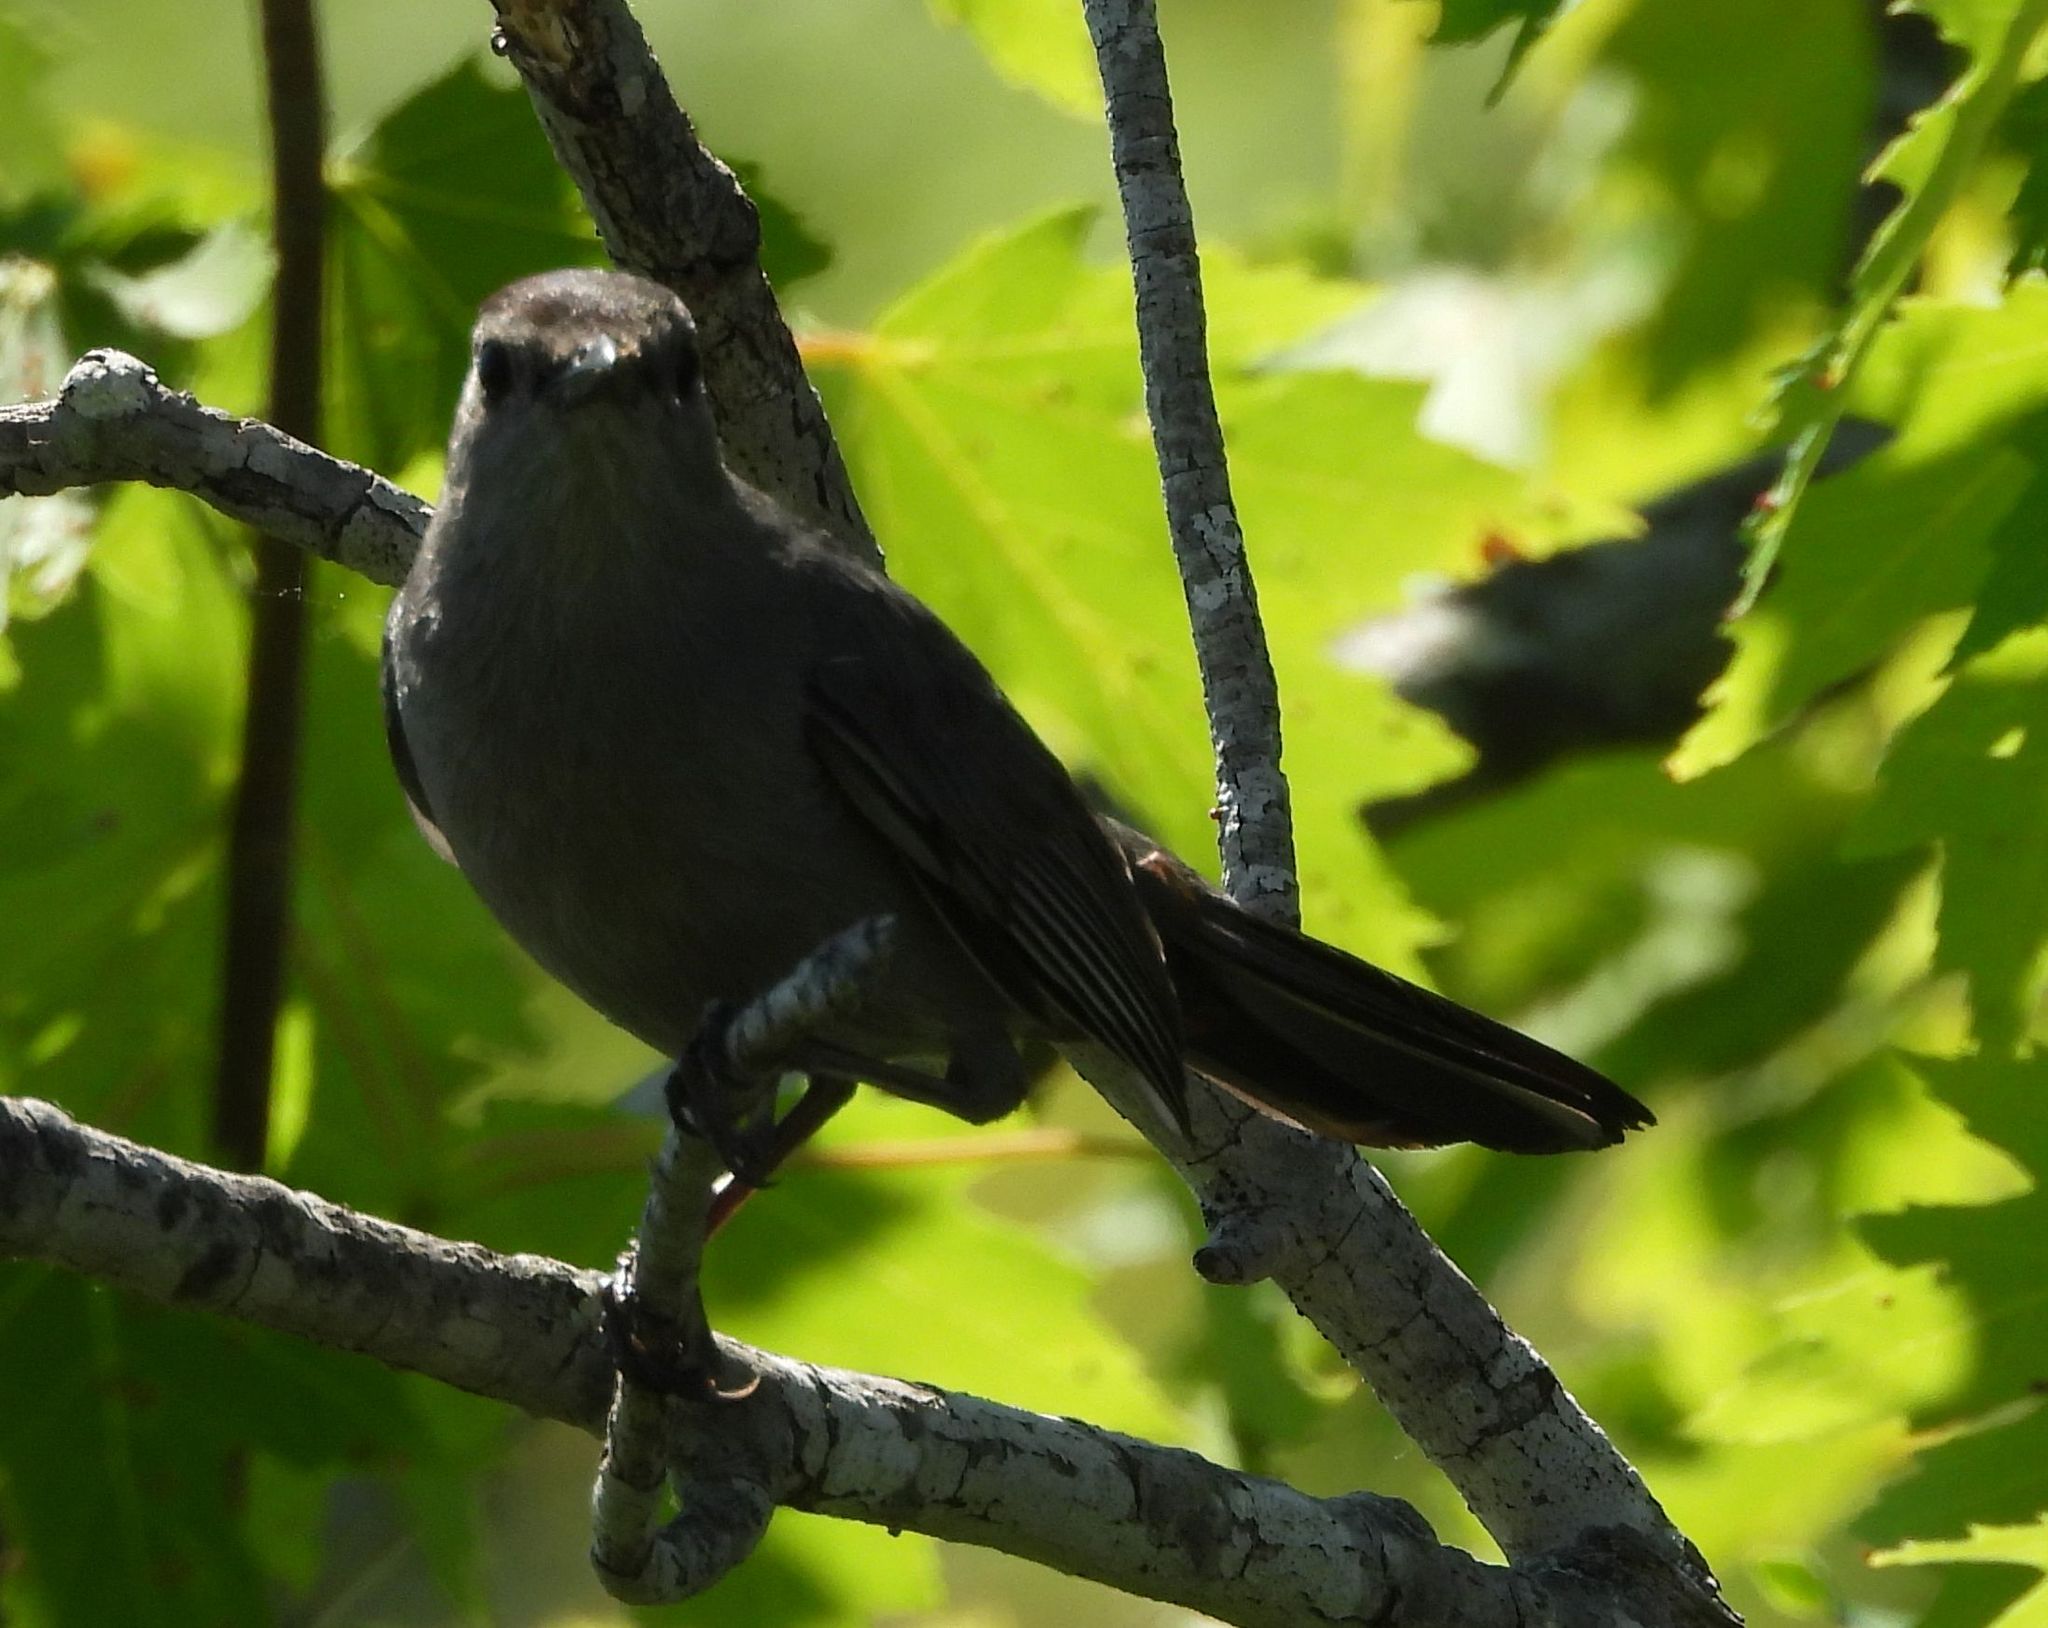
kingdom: Animalia
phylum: Chordata
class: Aves
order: Passeriformes
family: Mimidae
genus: Dumetella
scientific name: Dumetella carolinensis
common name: Gray catbird
